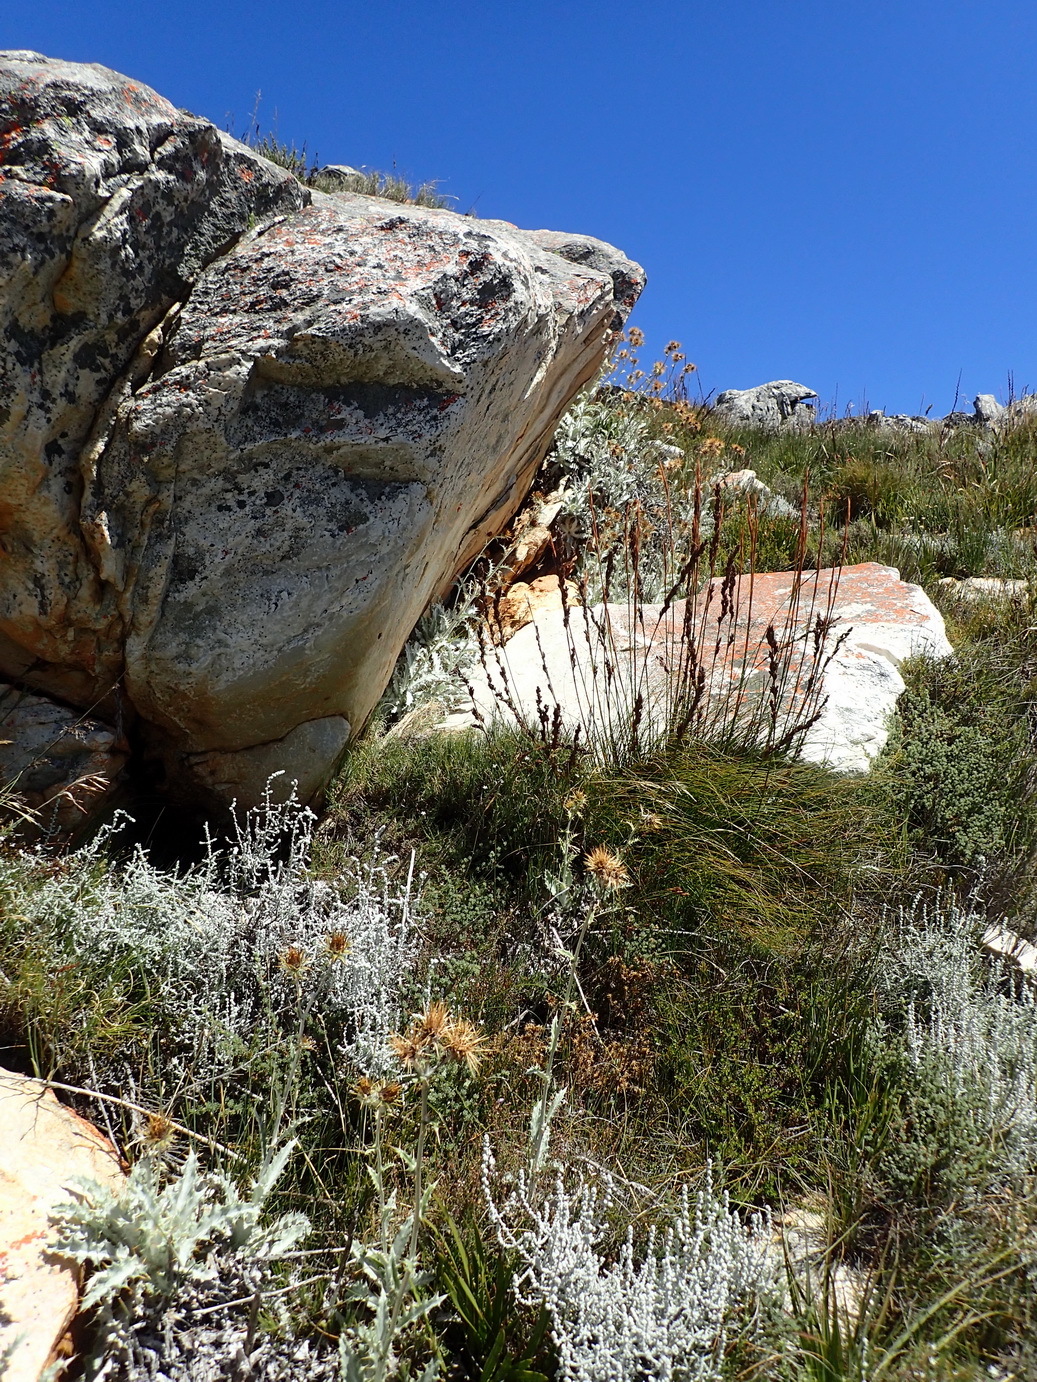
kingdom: Plantae
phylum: Tracheophyta
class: Magnoliopsida
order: Asterales
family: Asteraceae
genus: Berkheya
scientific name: Berkheya francisci
